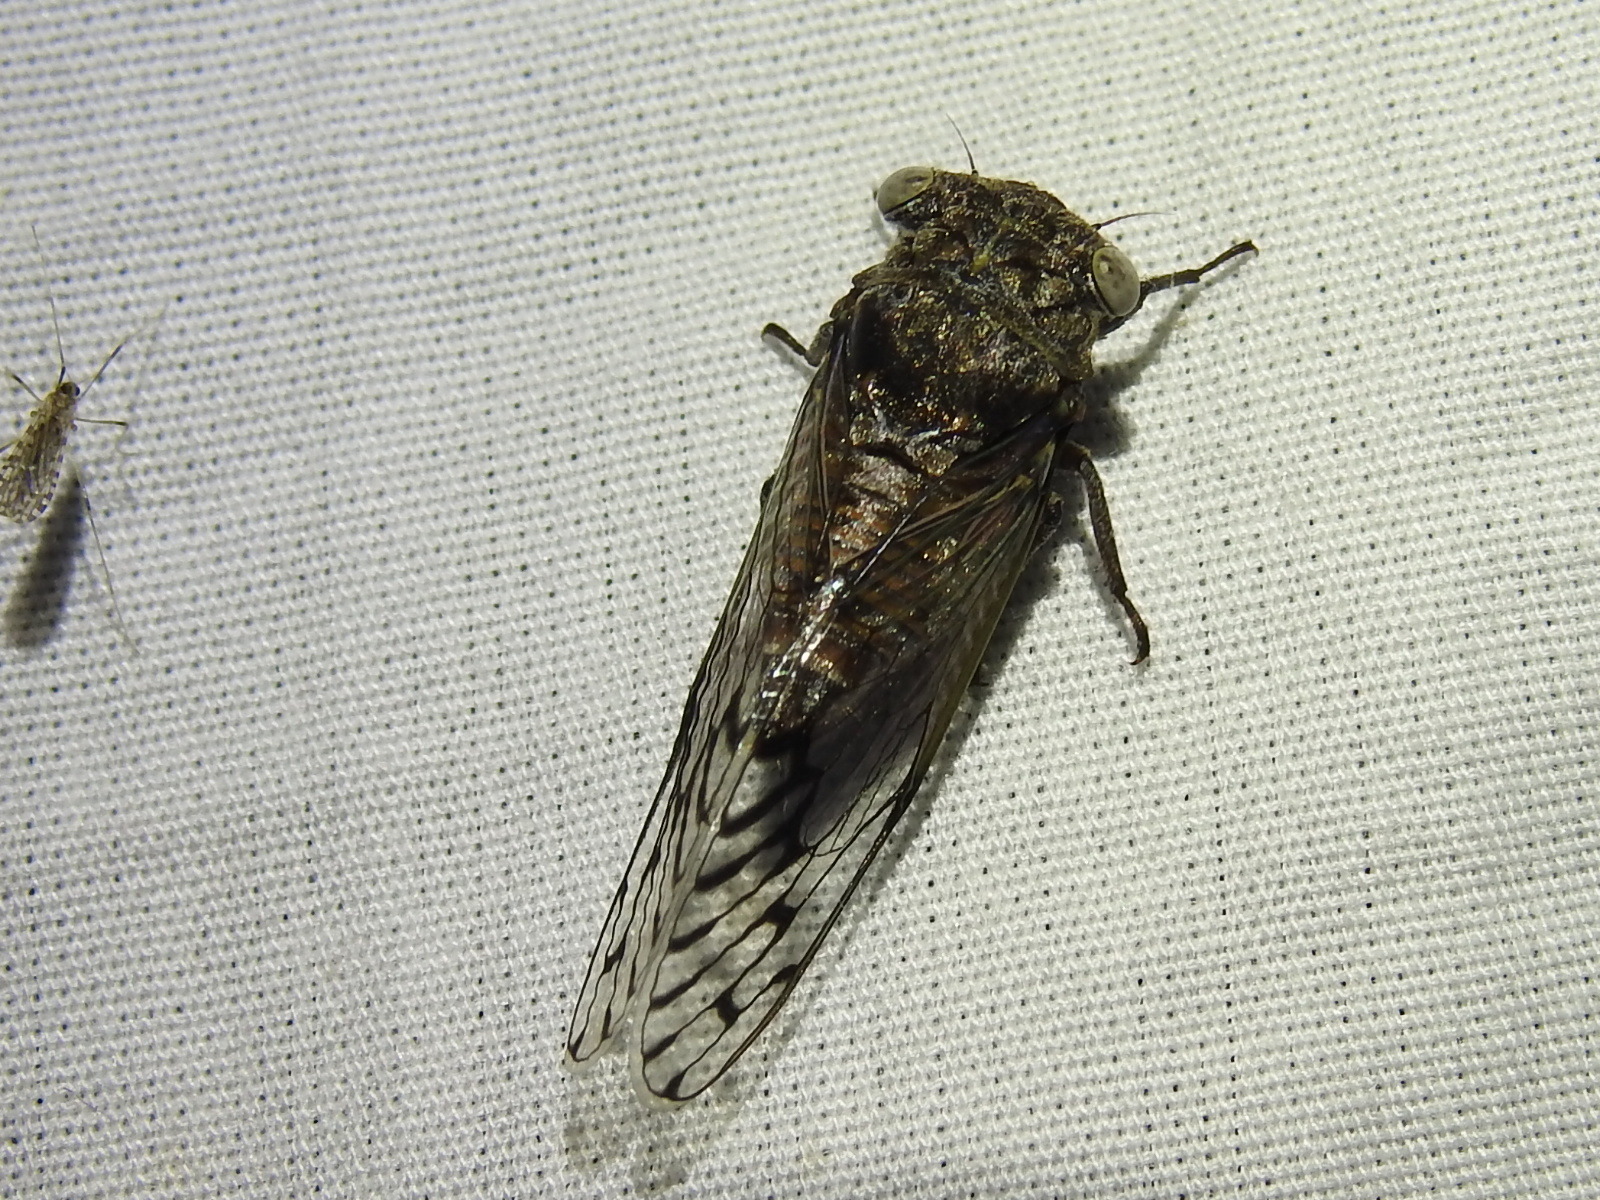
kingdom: Animalia
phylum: Arthropoda
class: Insecta
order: Hemiptera
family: Cicadidae
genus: Pacarina
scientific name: Pacarina puella
